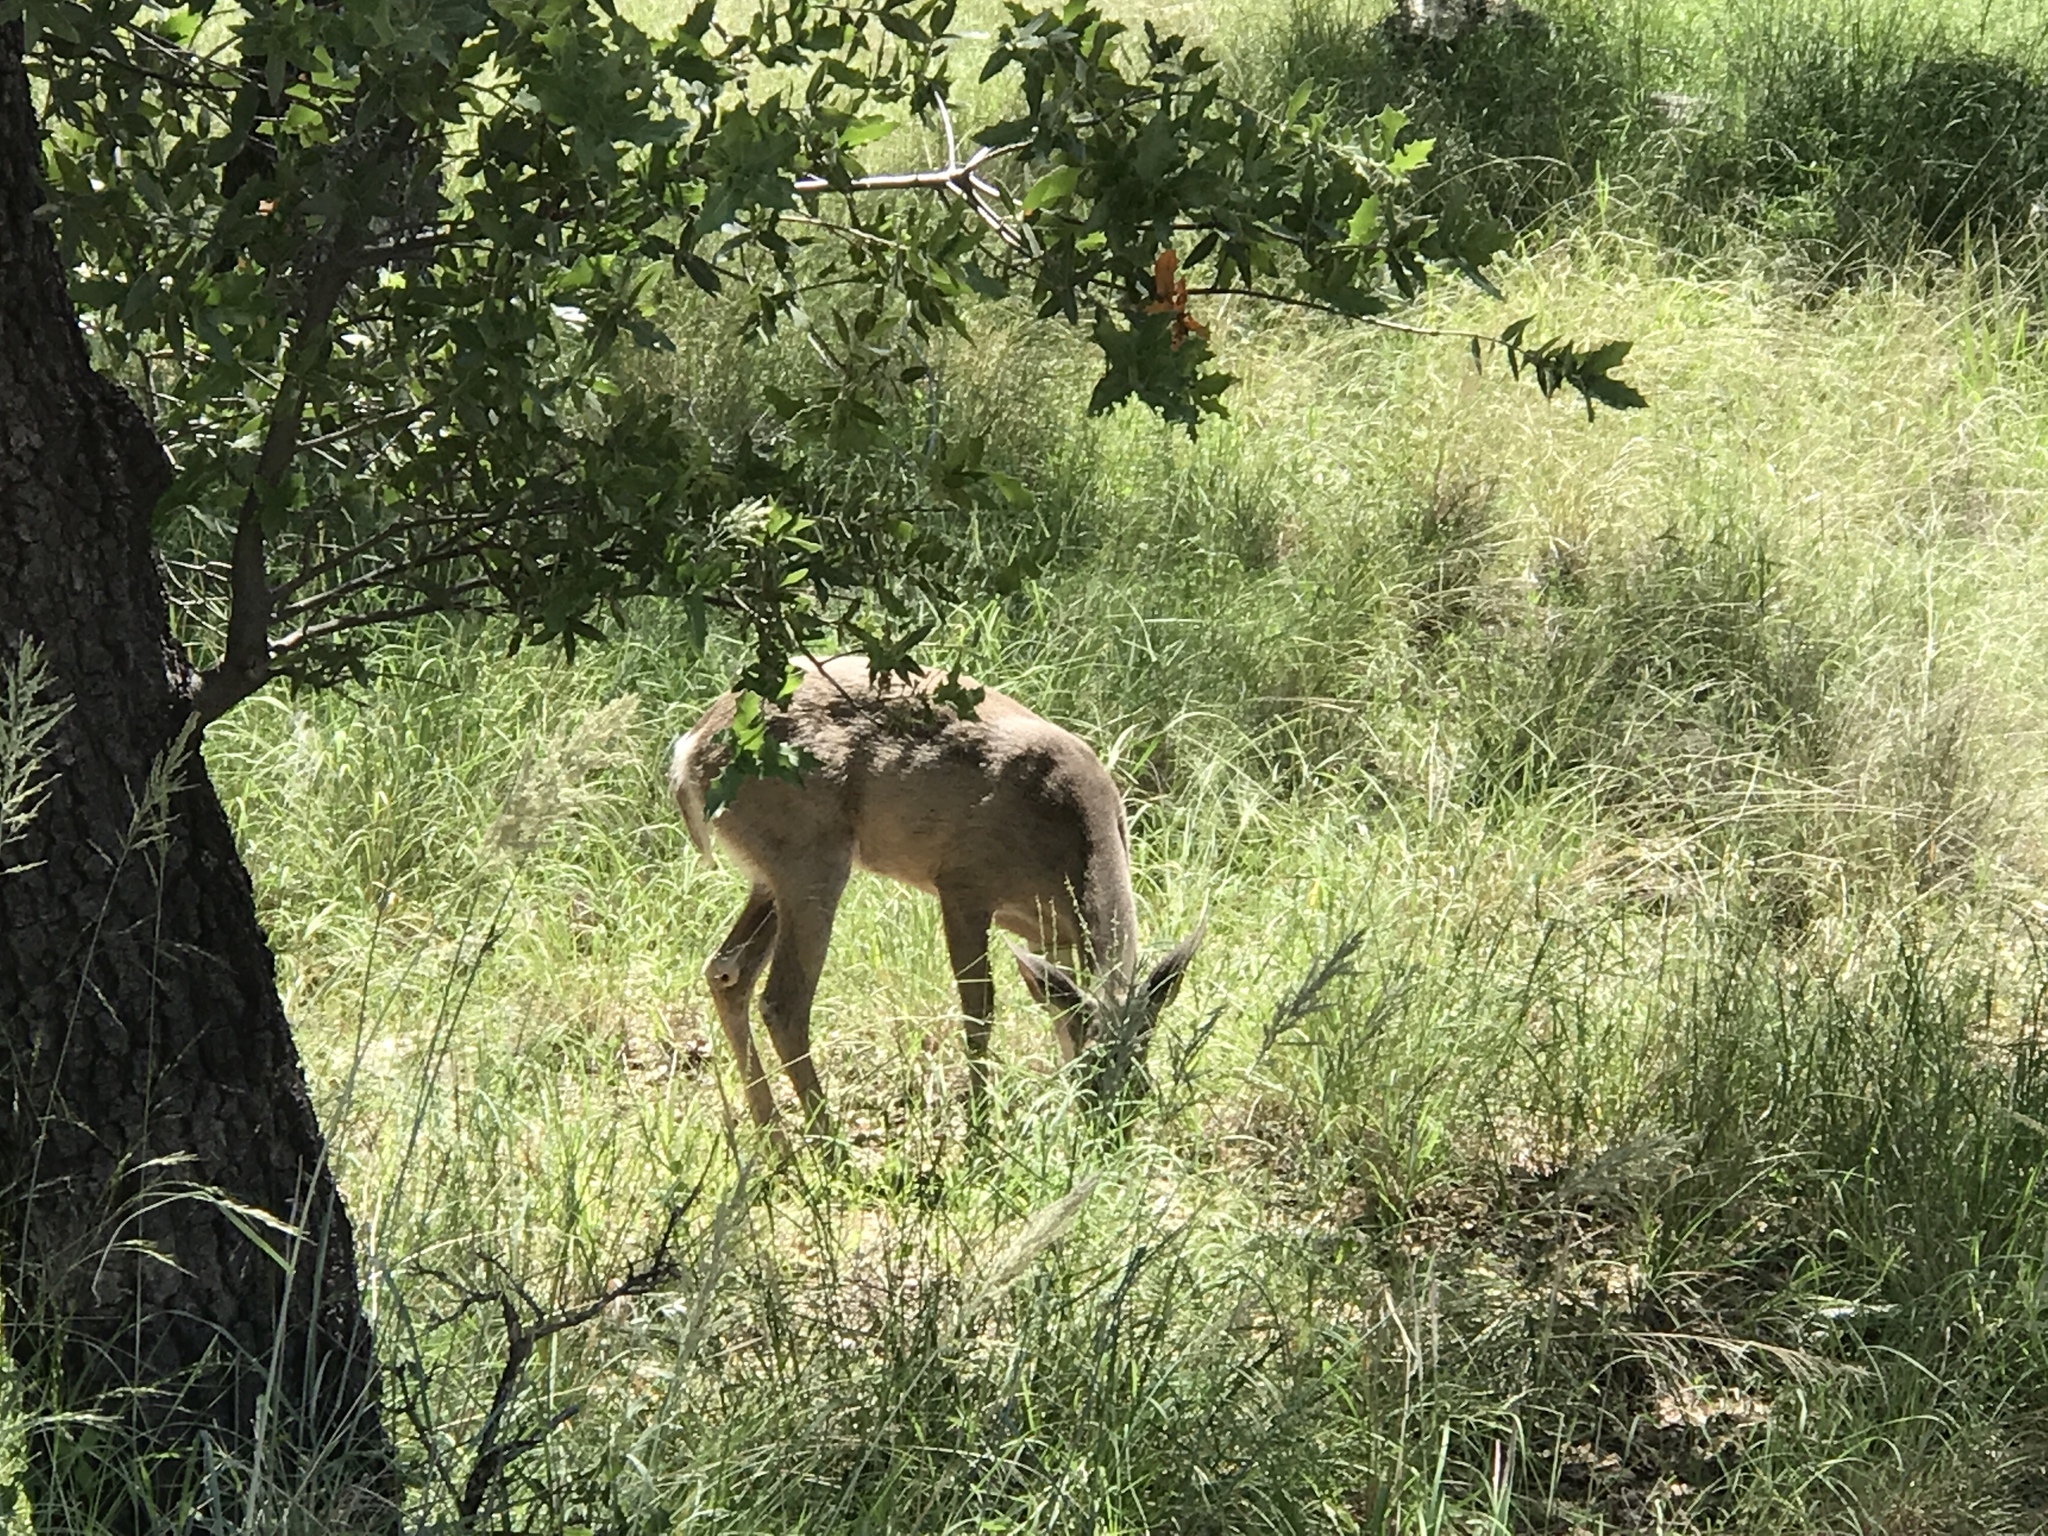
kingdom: Animalia
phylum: Chordata
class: Mammalia
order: Artiodactyla
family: Cervidae
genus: Odocoileus
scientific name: Odocoileus virginianus
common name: White-tailed deer
